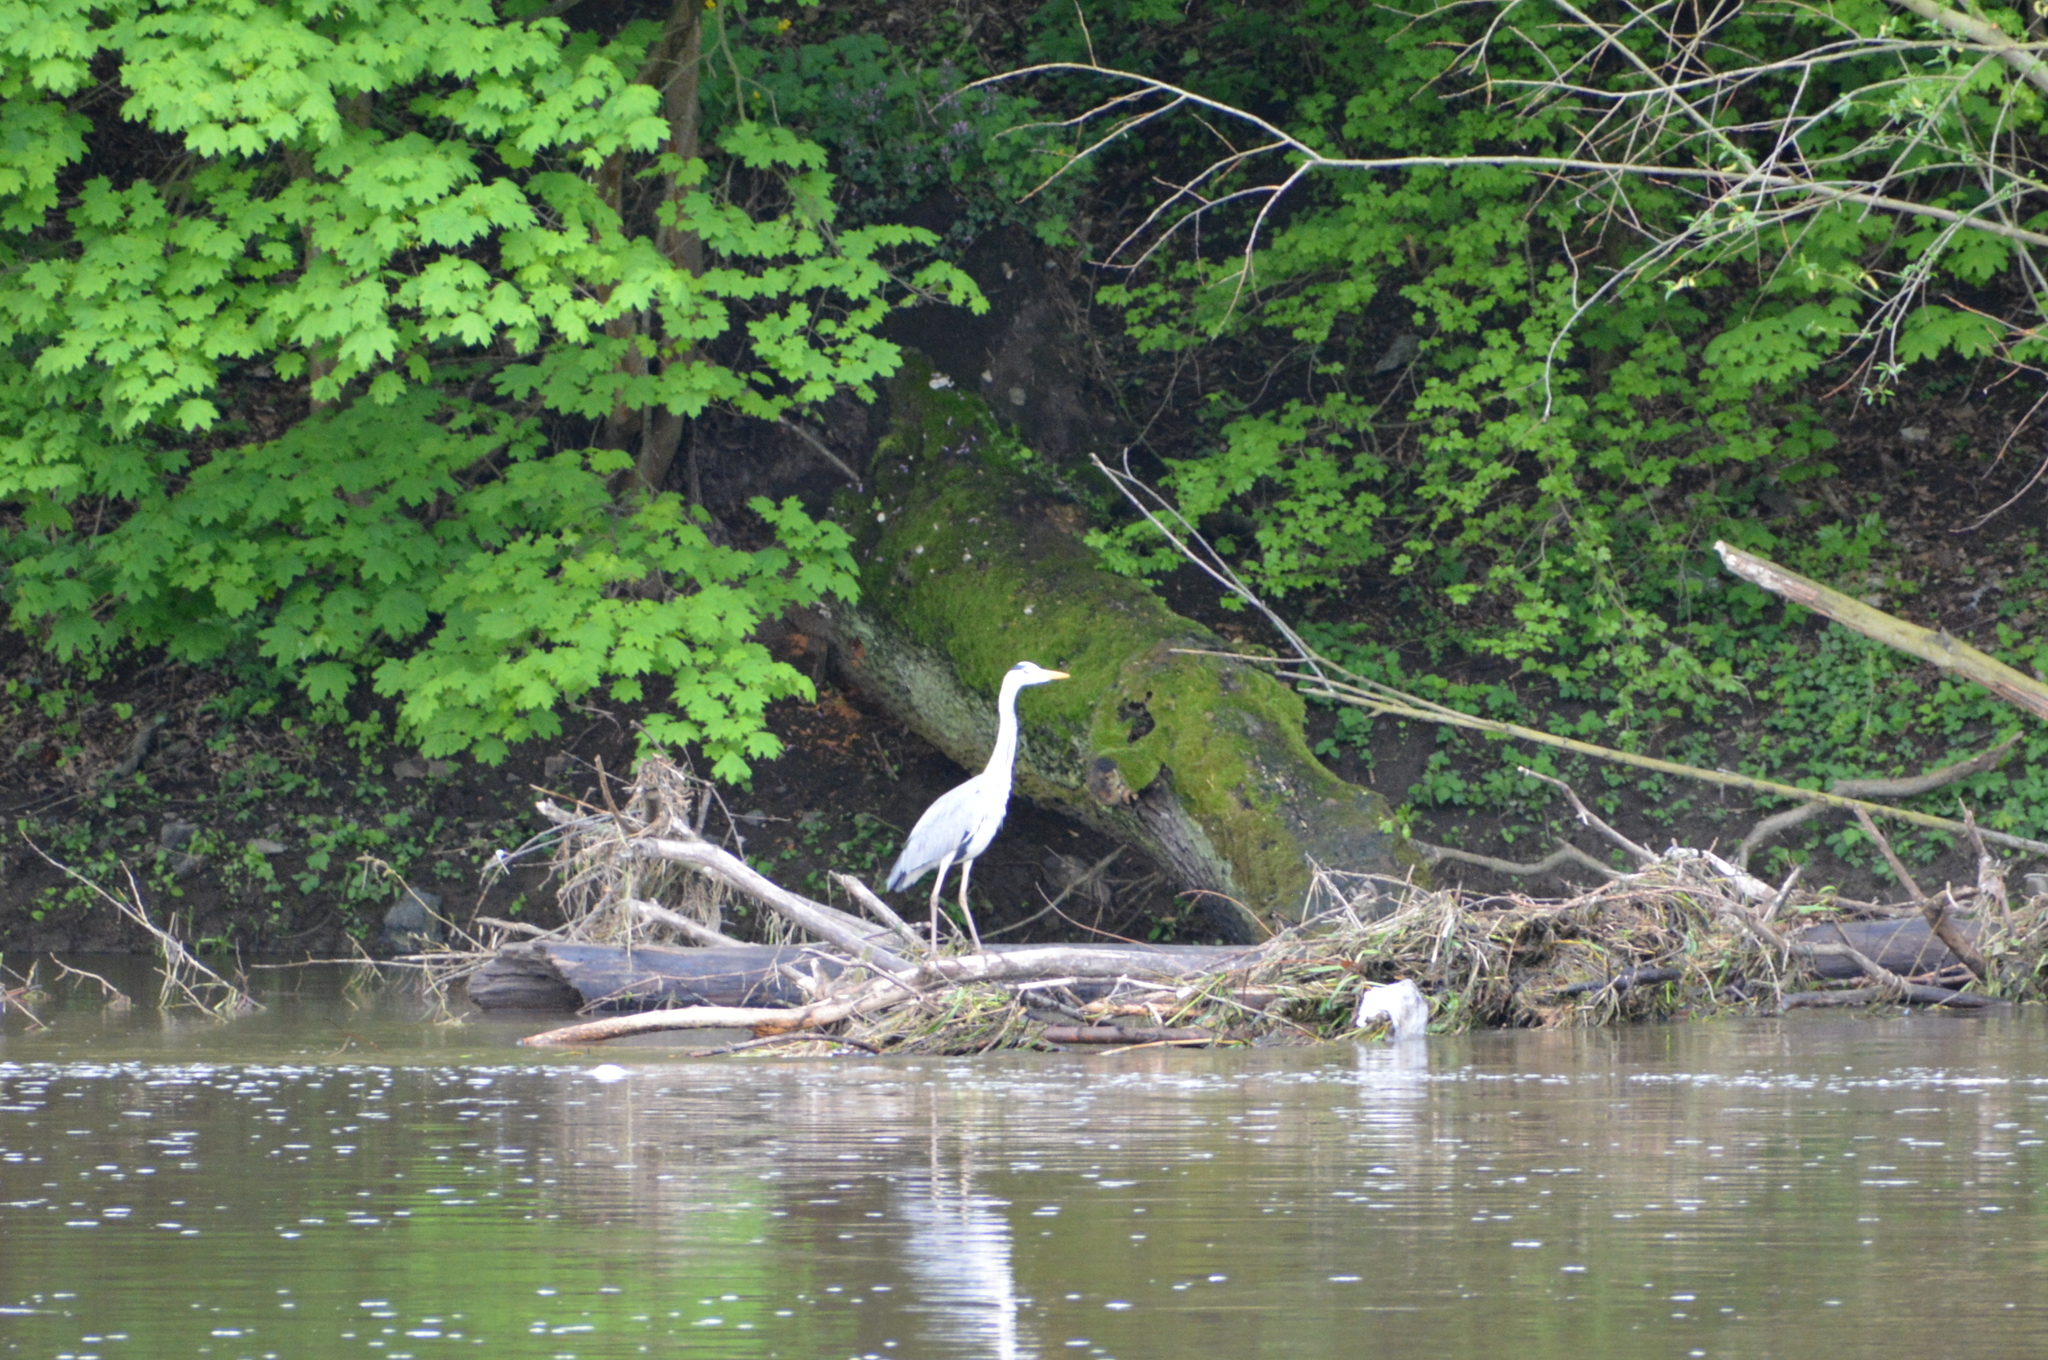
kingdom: Animalia
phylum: Chordata
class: Aves
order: Pelecaniformes
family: Ardeidae
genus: Ardea
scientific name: Ardea cinerea
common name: Grey heron
